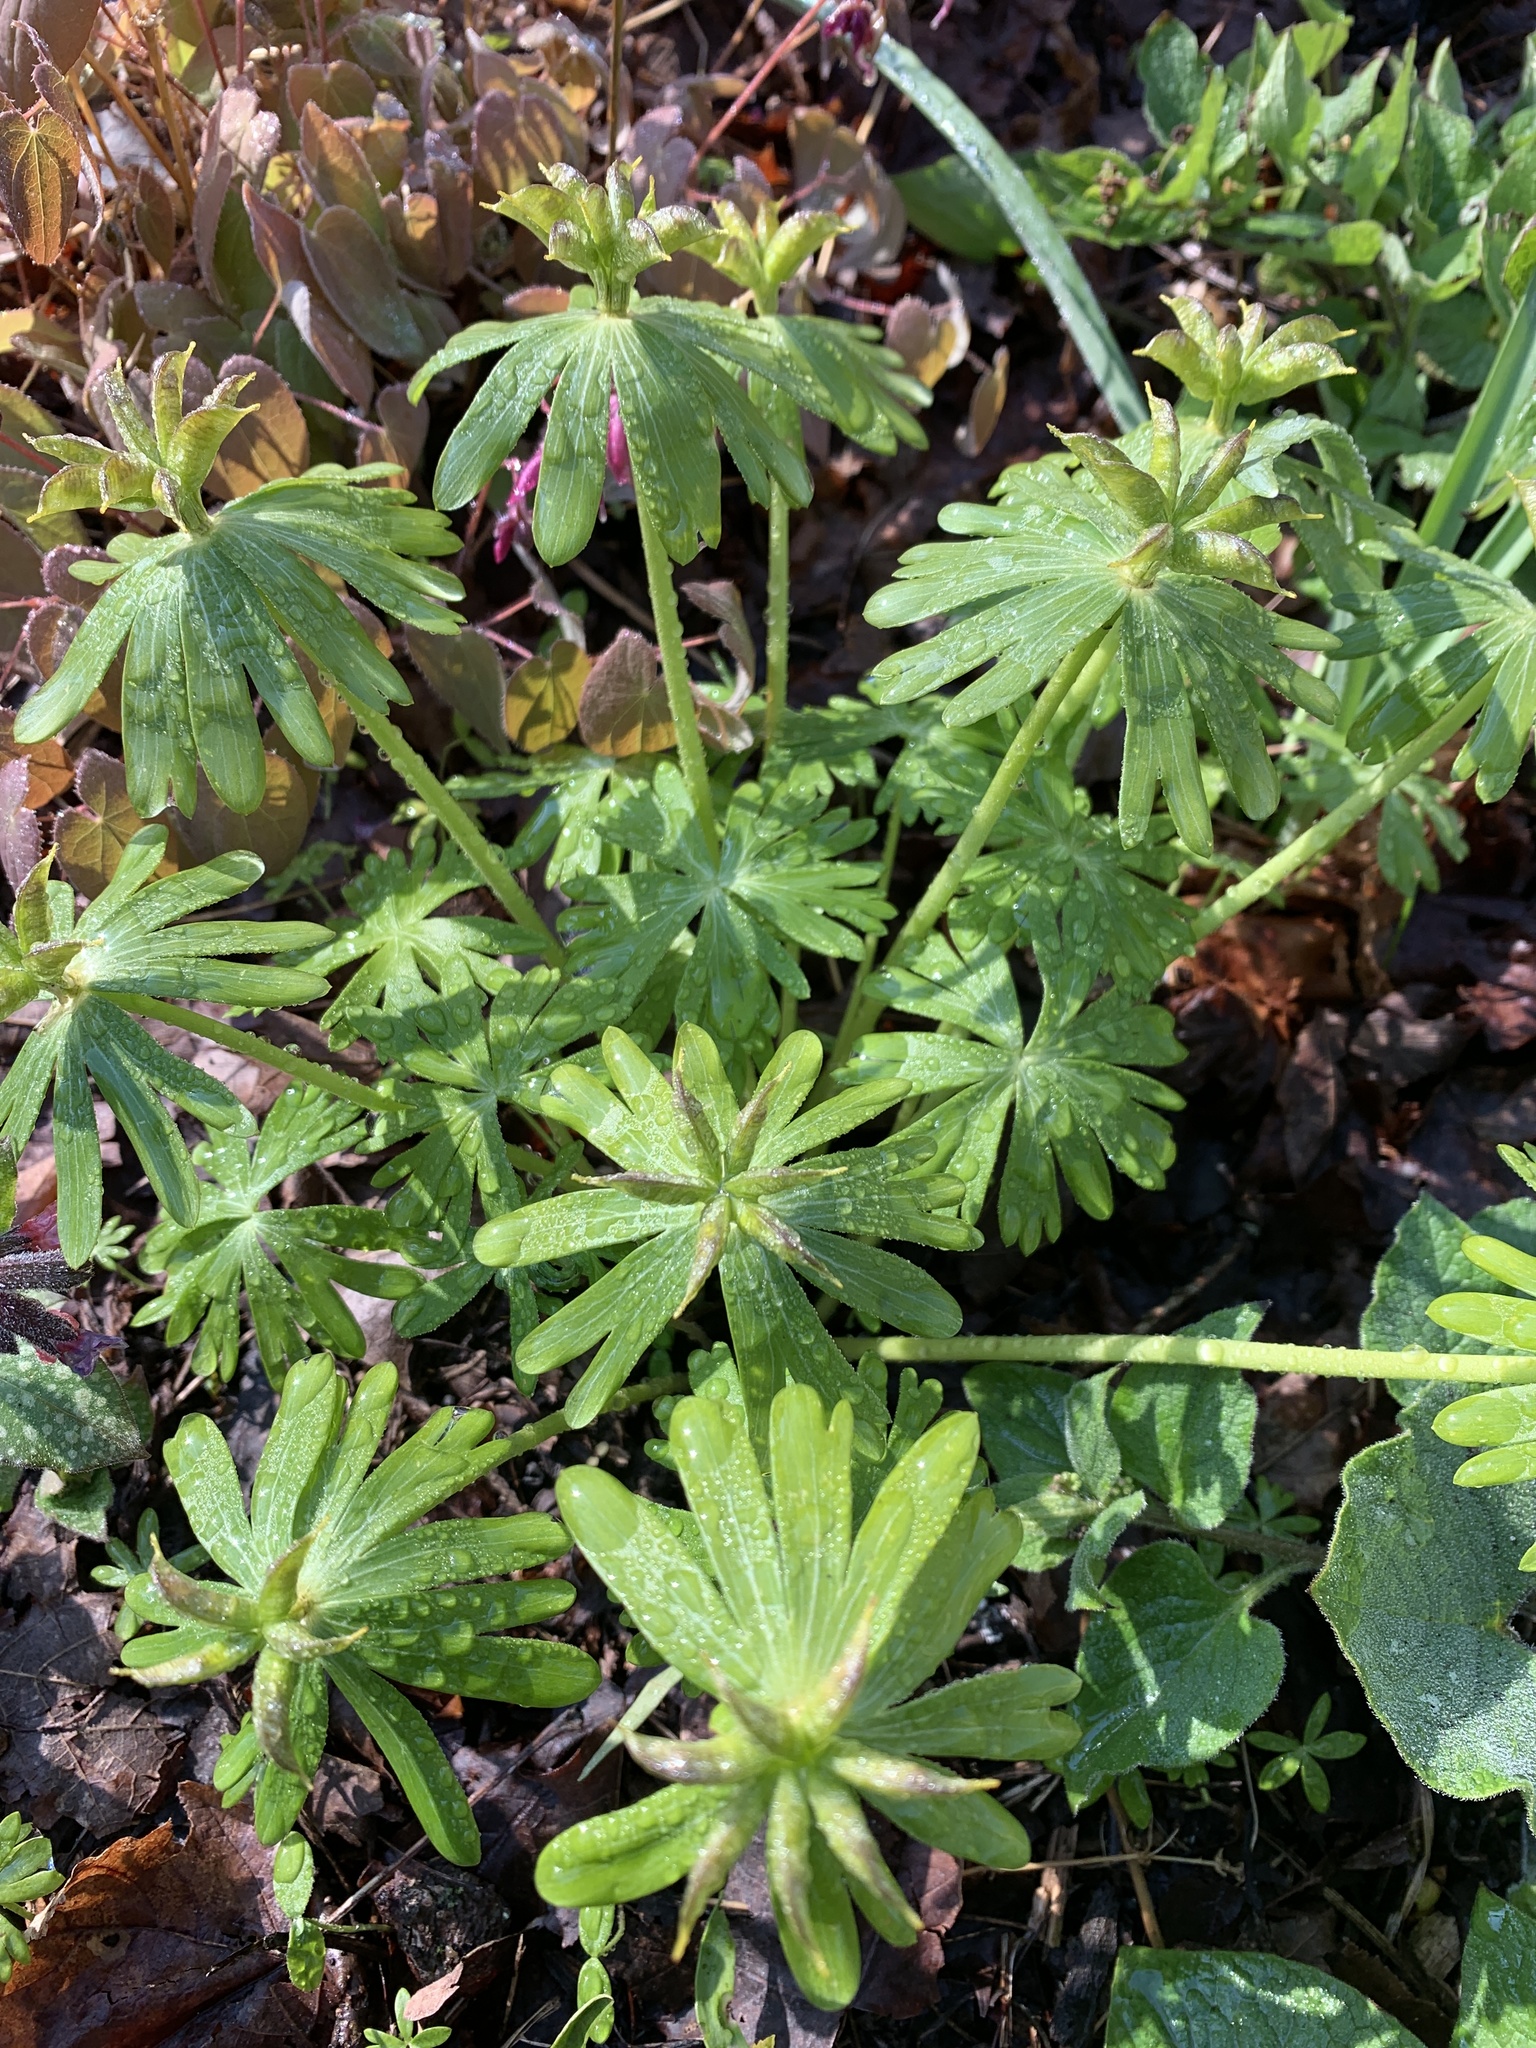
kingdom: Plantae
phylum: Tracheophyta
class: Magnoliopsida
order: Ranunculales
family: Ranunculaceae
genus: Eranthis
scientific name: Eranthis hyemalis
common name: Winter aconite
